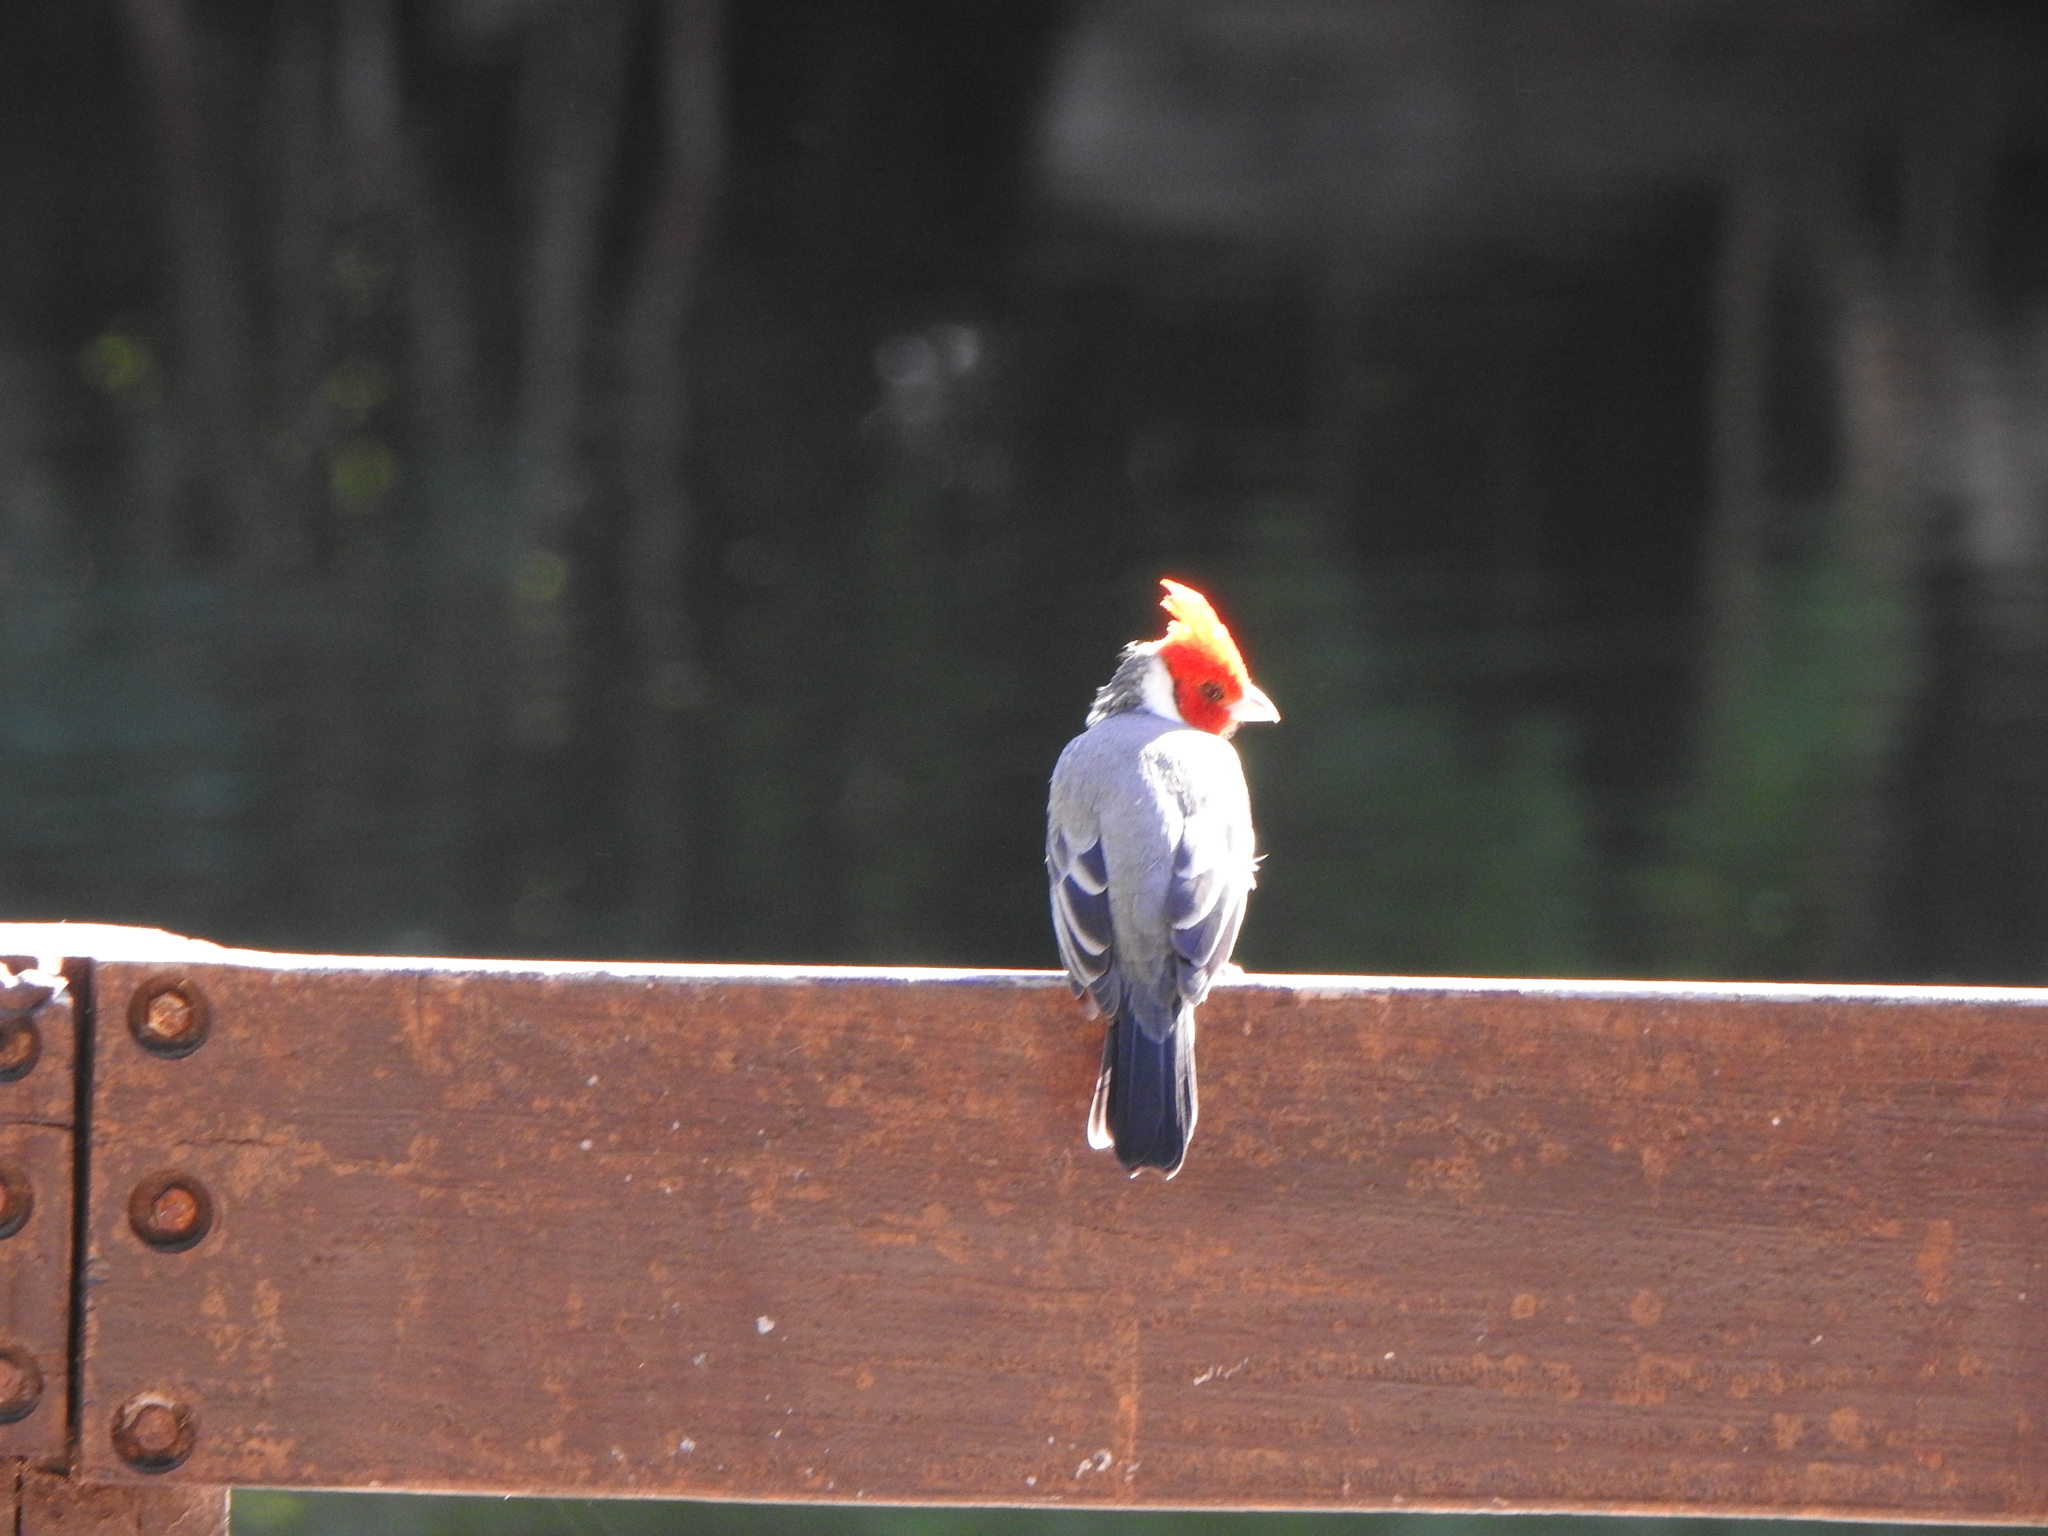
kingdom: Animalia
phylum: Chordata
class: Aves
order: Passeriformes
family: Thraupidae
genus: Paroaria
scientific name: Paroaria coronata
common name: Red-crested cardinal
